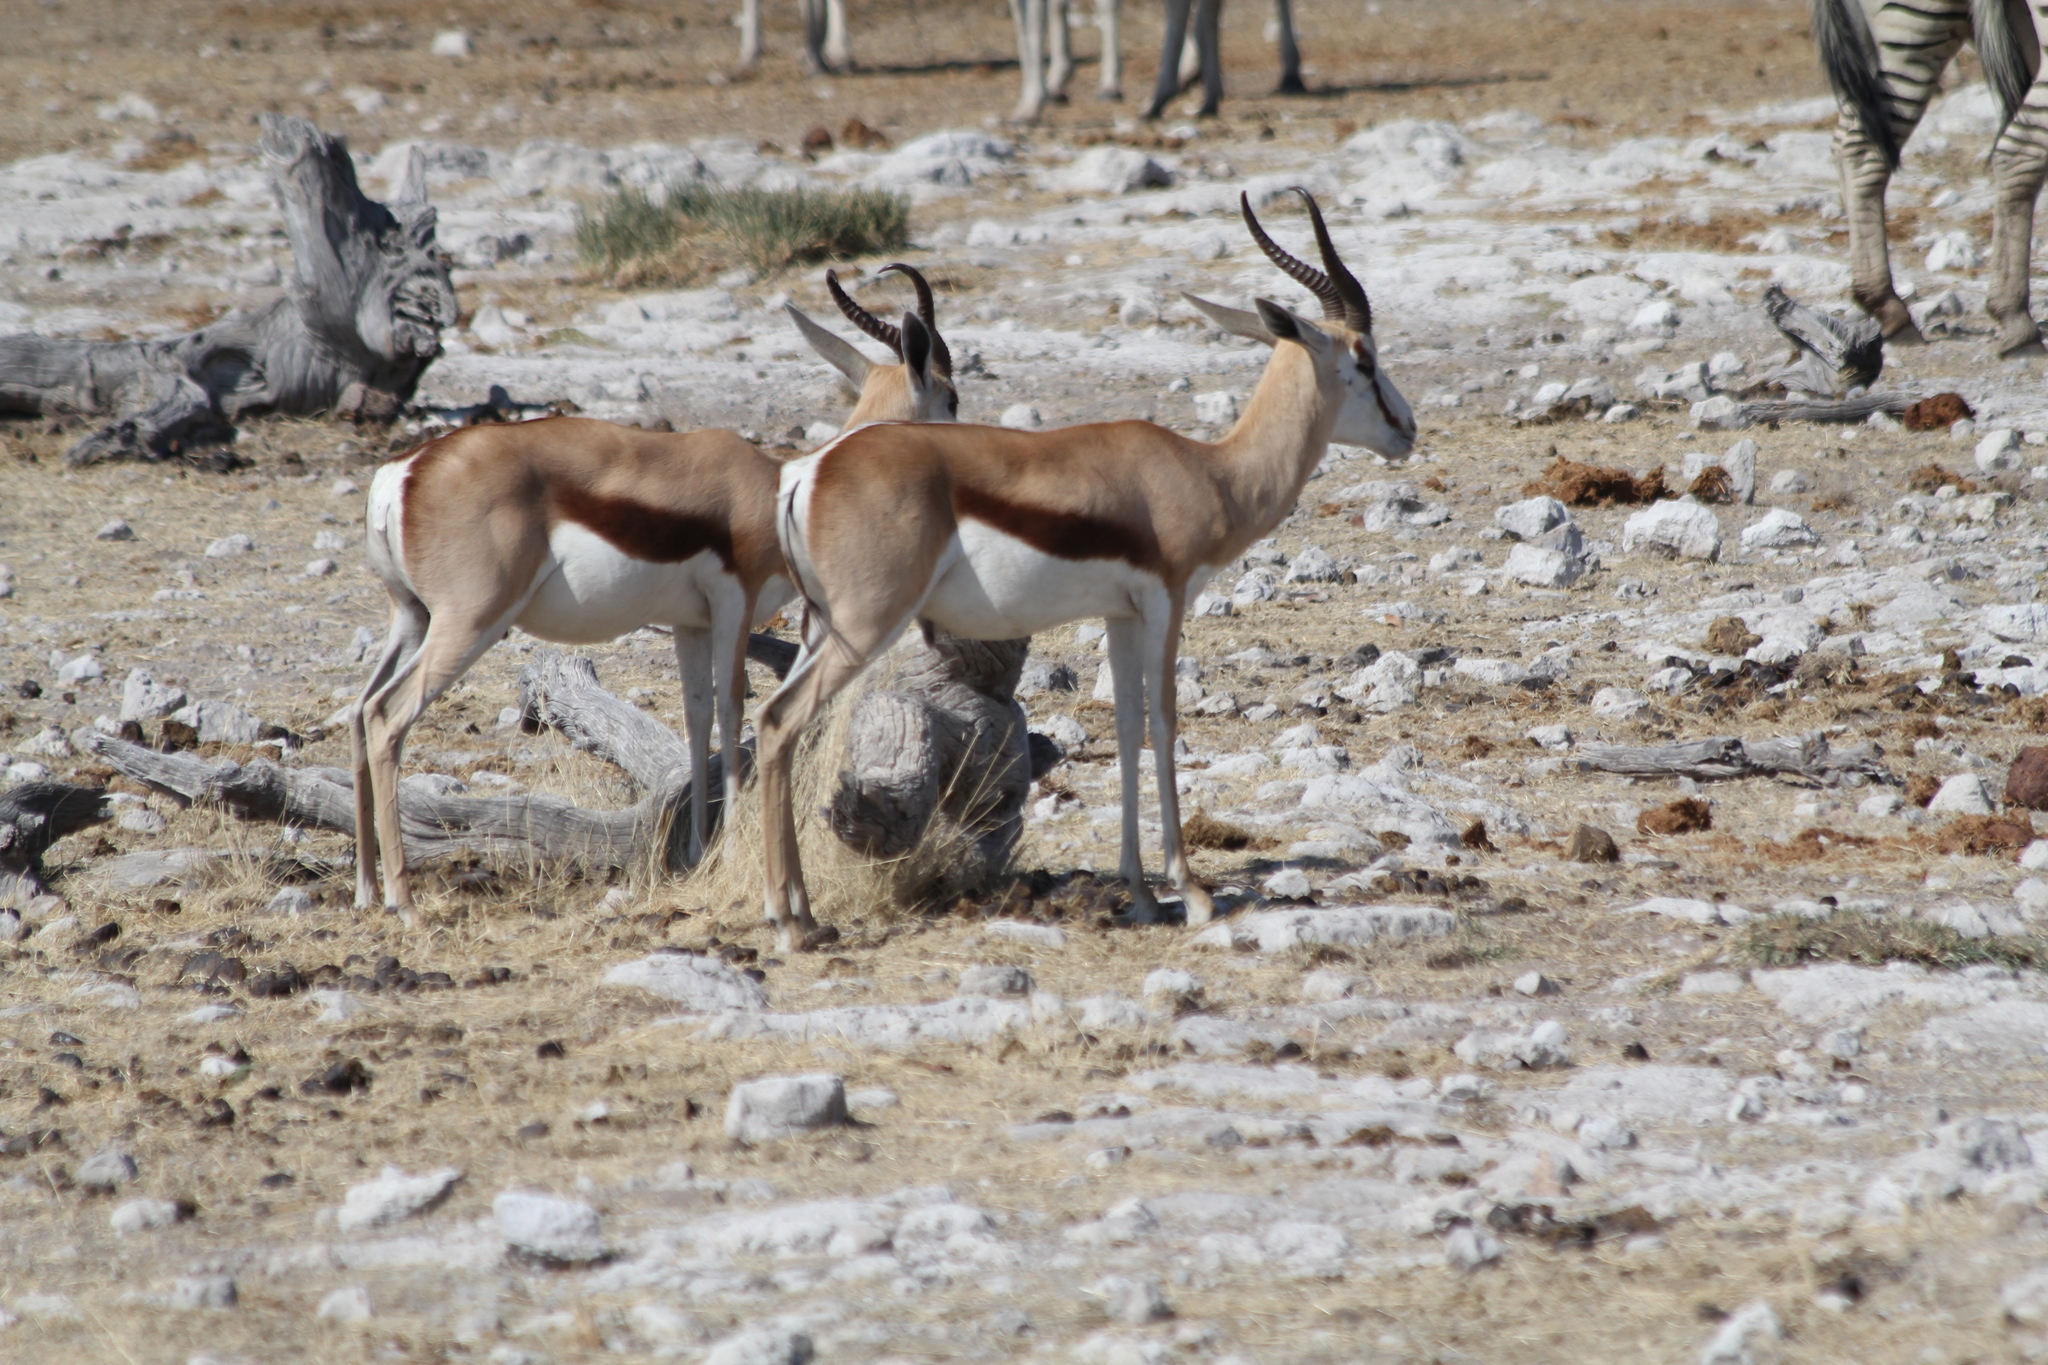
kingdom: Animalia
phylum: Chordata
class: Mammalia
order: Artiodactyla
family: Bovidae
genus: Antidorcas
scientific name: Antidorcas marsupialis
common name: Springbok
